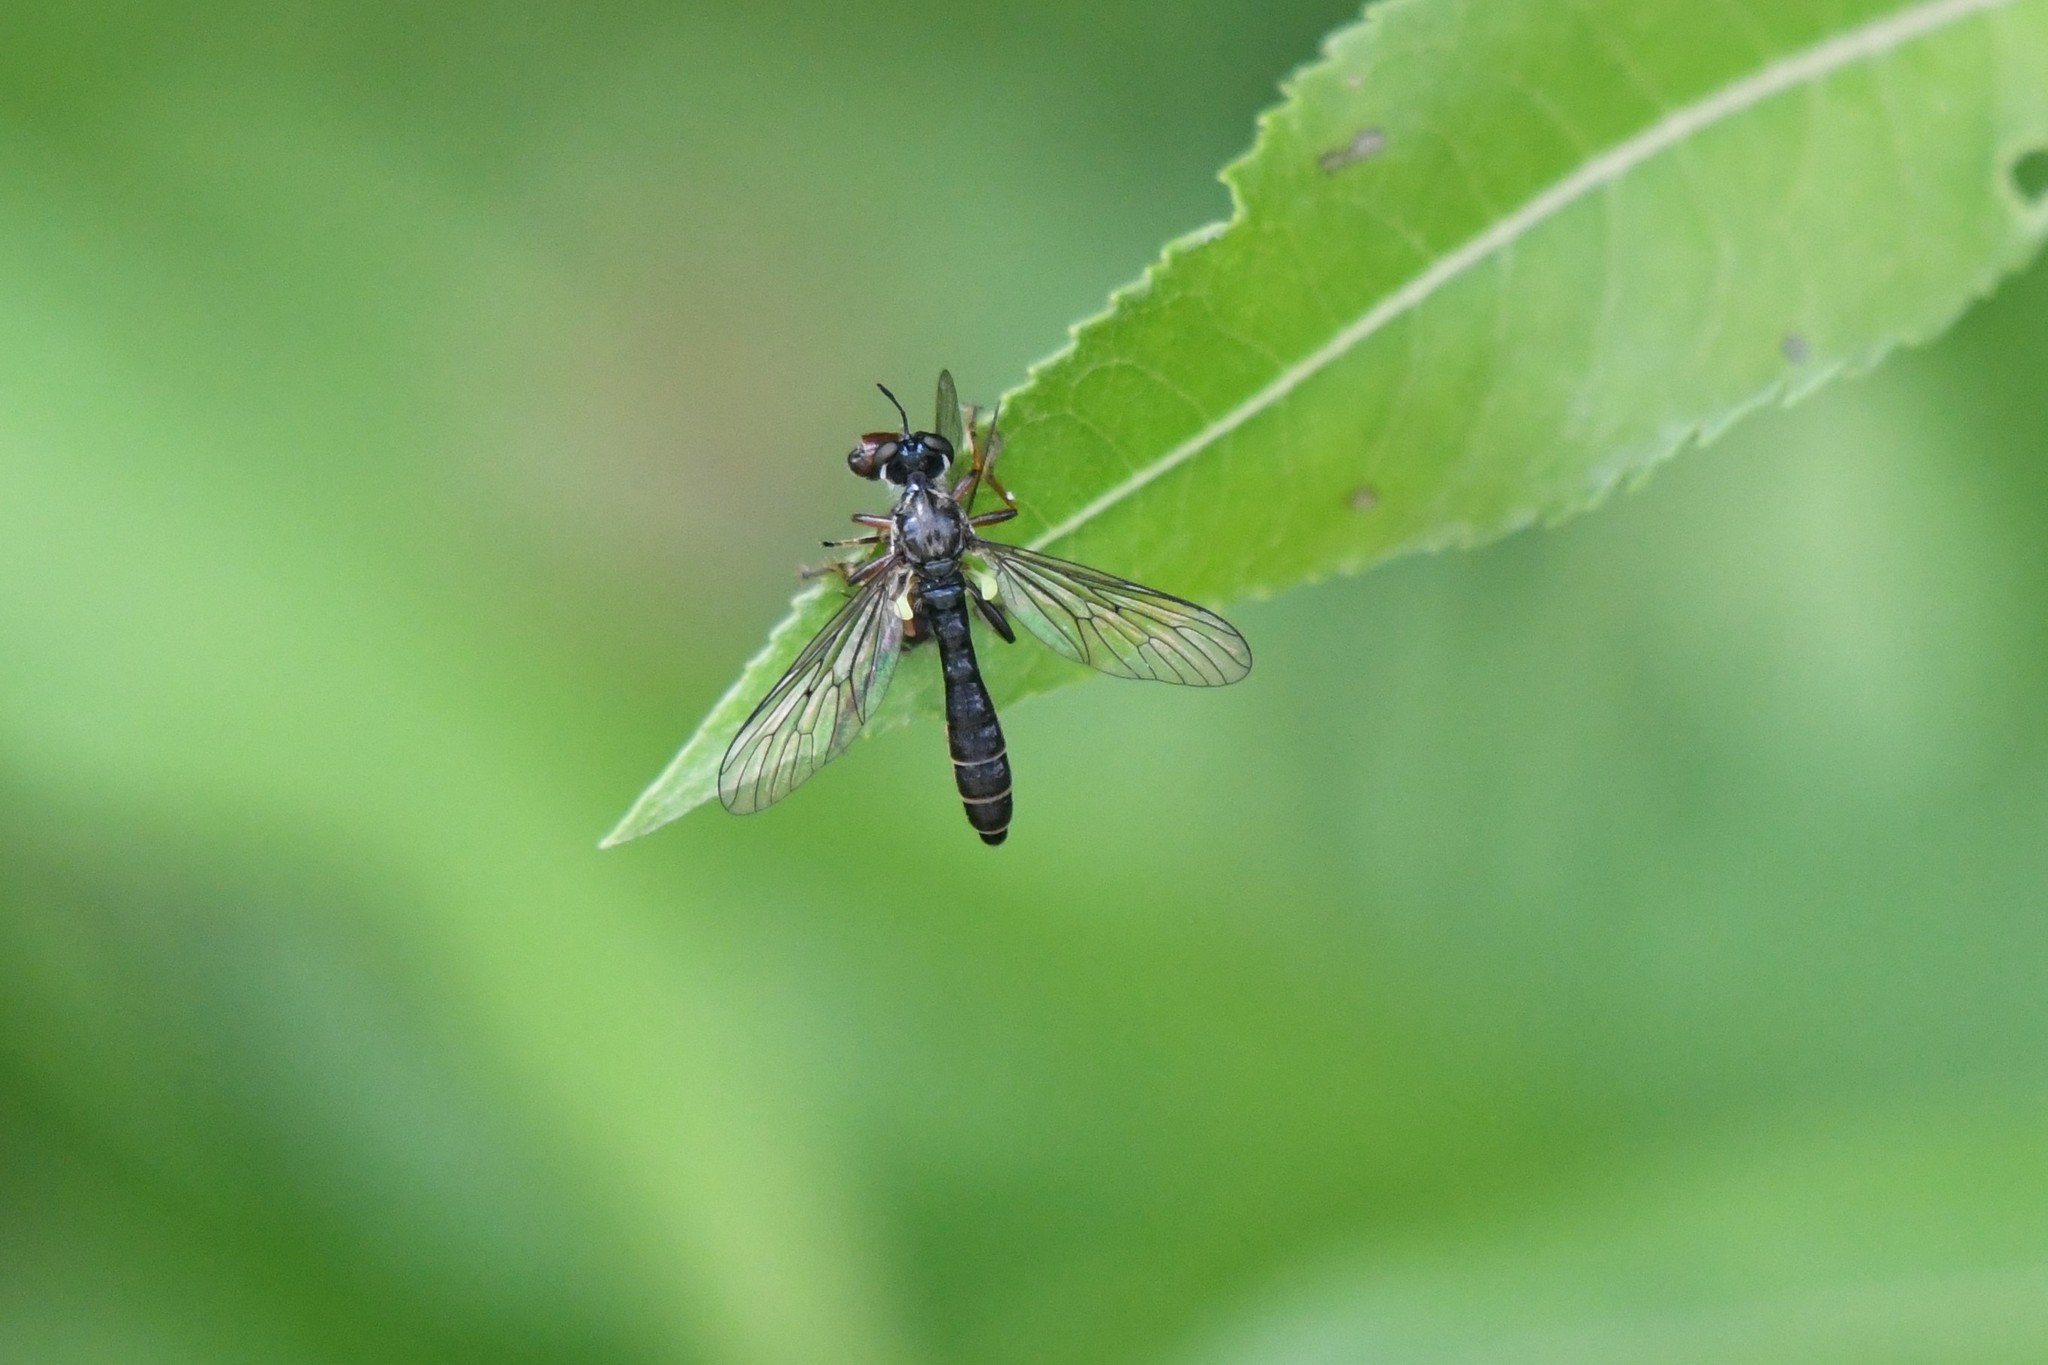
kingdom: Animalia
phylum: Arthropoda
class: Insecta
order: Diptera
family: Asilidae
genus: Dioctria
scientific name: Dioctria hyalipennis
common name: Stripe-legged robberfly
